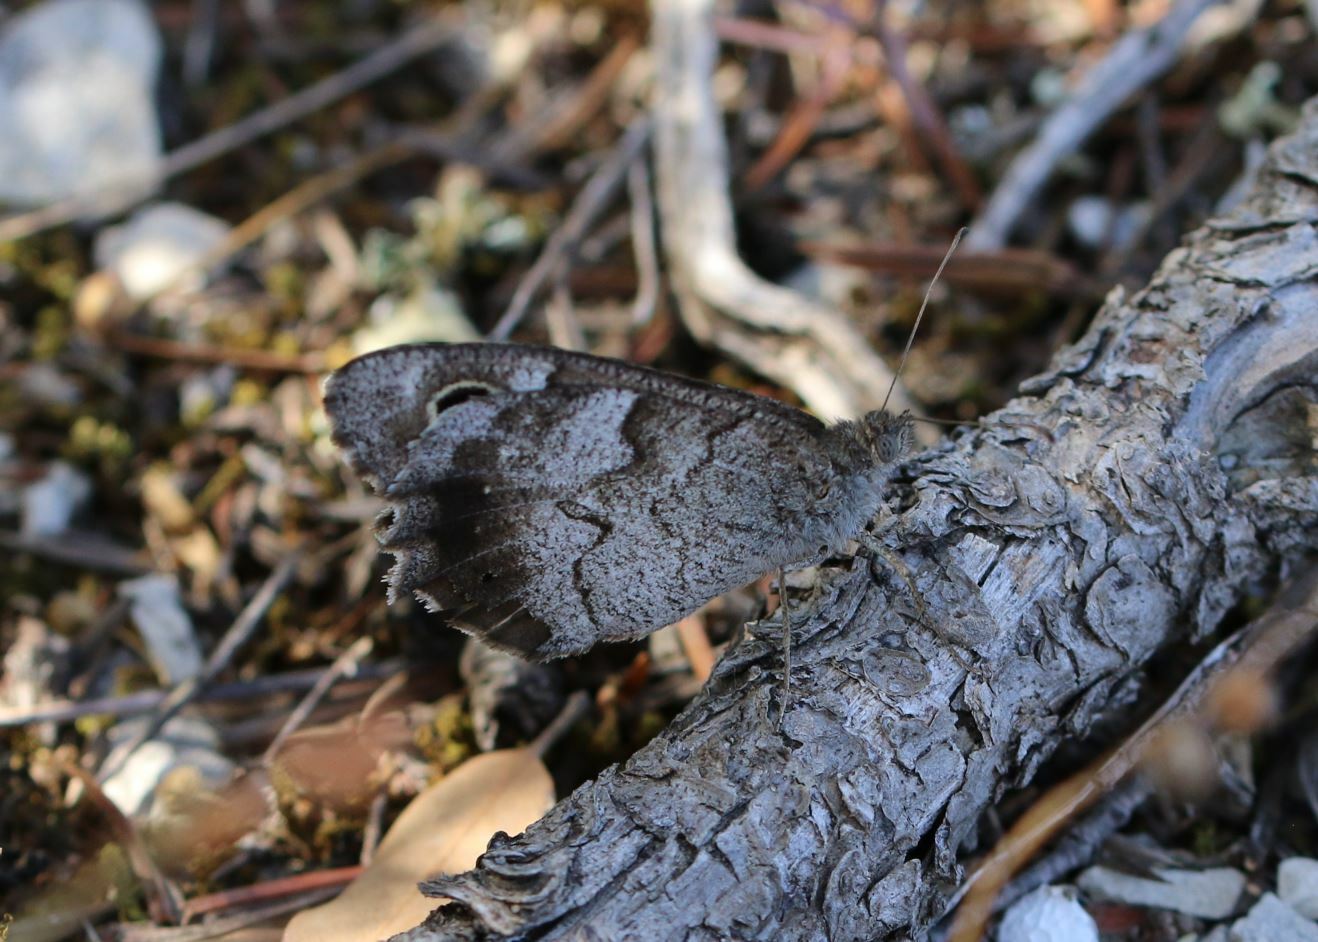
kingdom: Animalia
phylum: Arthropoda
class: Insecta
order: Lepidoptera
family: Nymphalidae
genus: Hipparchia
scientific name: Hipparchia statilinus
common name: Tree grayling
